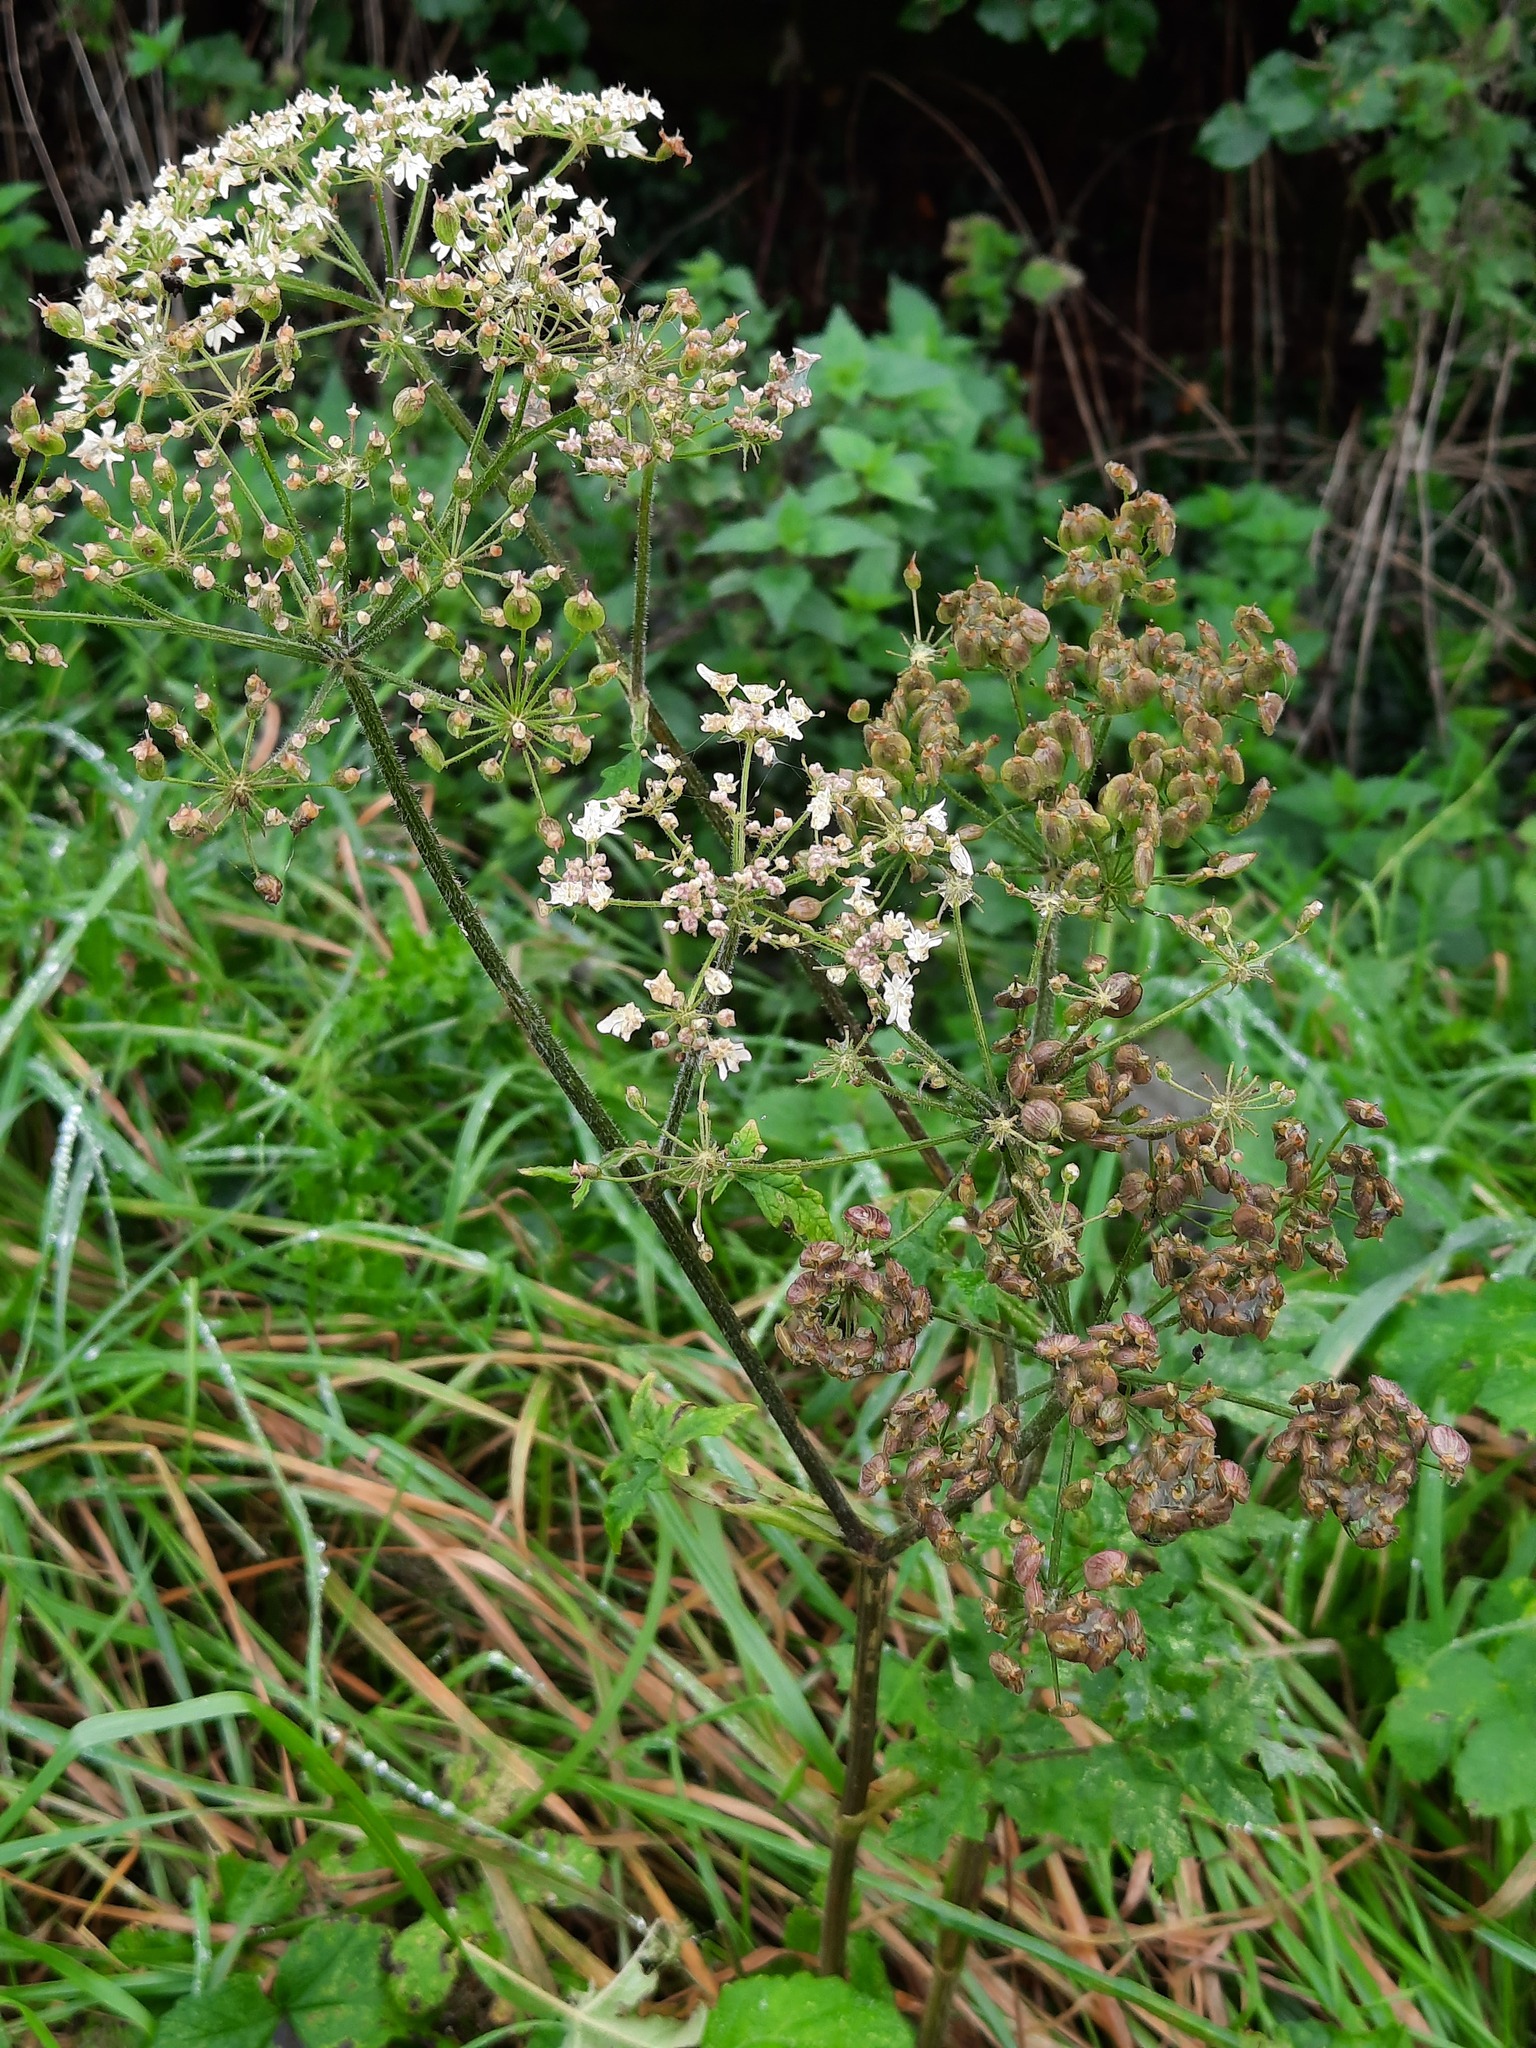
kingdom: Plantae
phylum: Tracheophyta
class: Magnoliopsida
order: Apiales
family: Apiaceae
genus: Heracleum
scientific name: Heracleum sphondylium
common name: Hogweed
